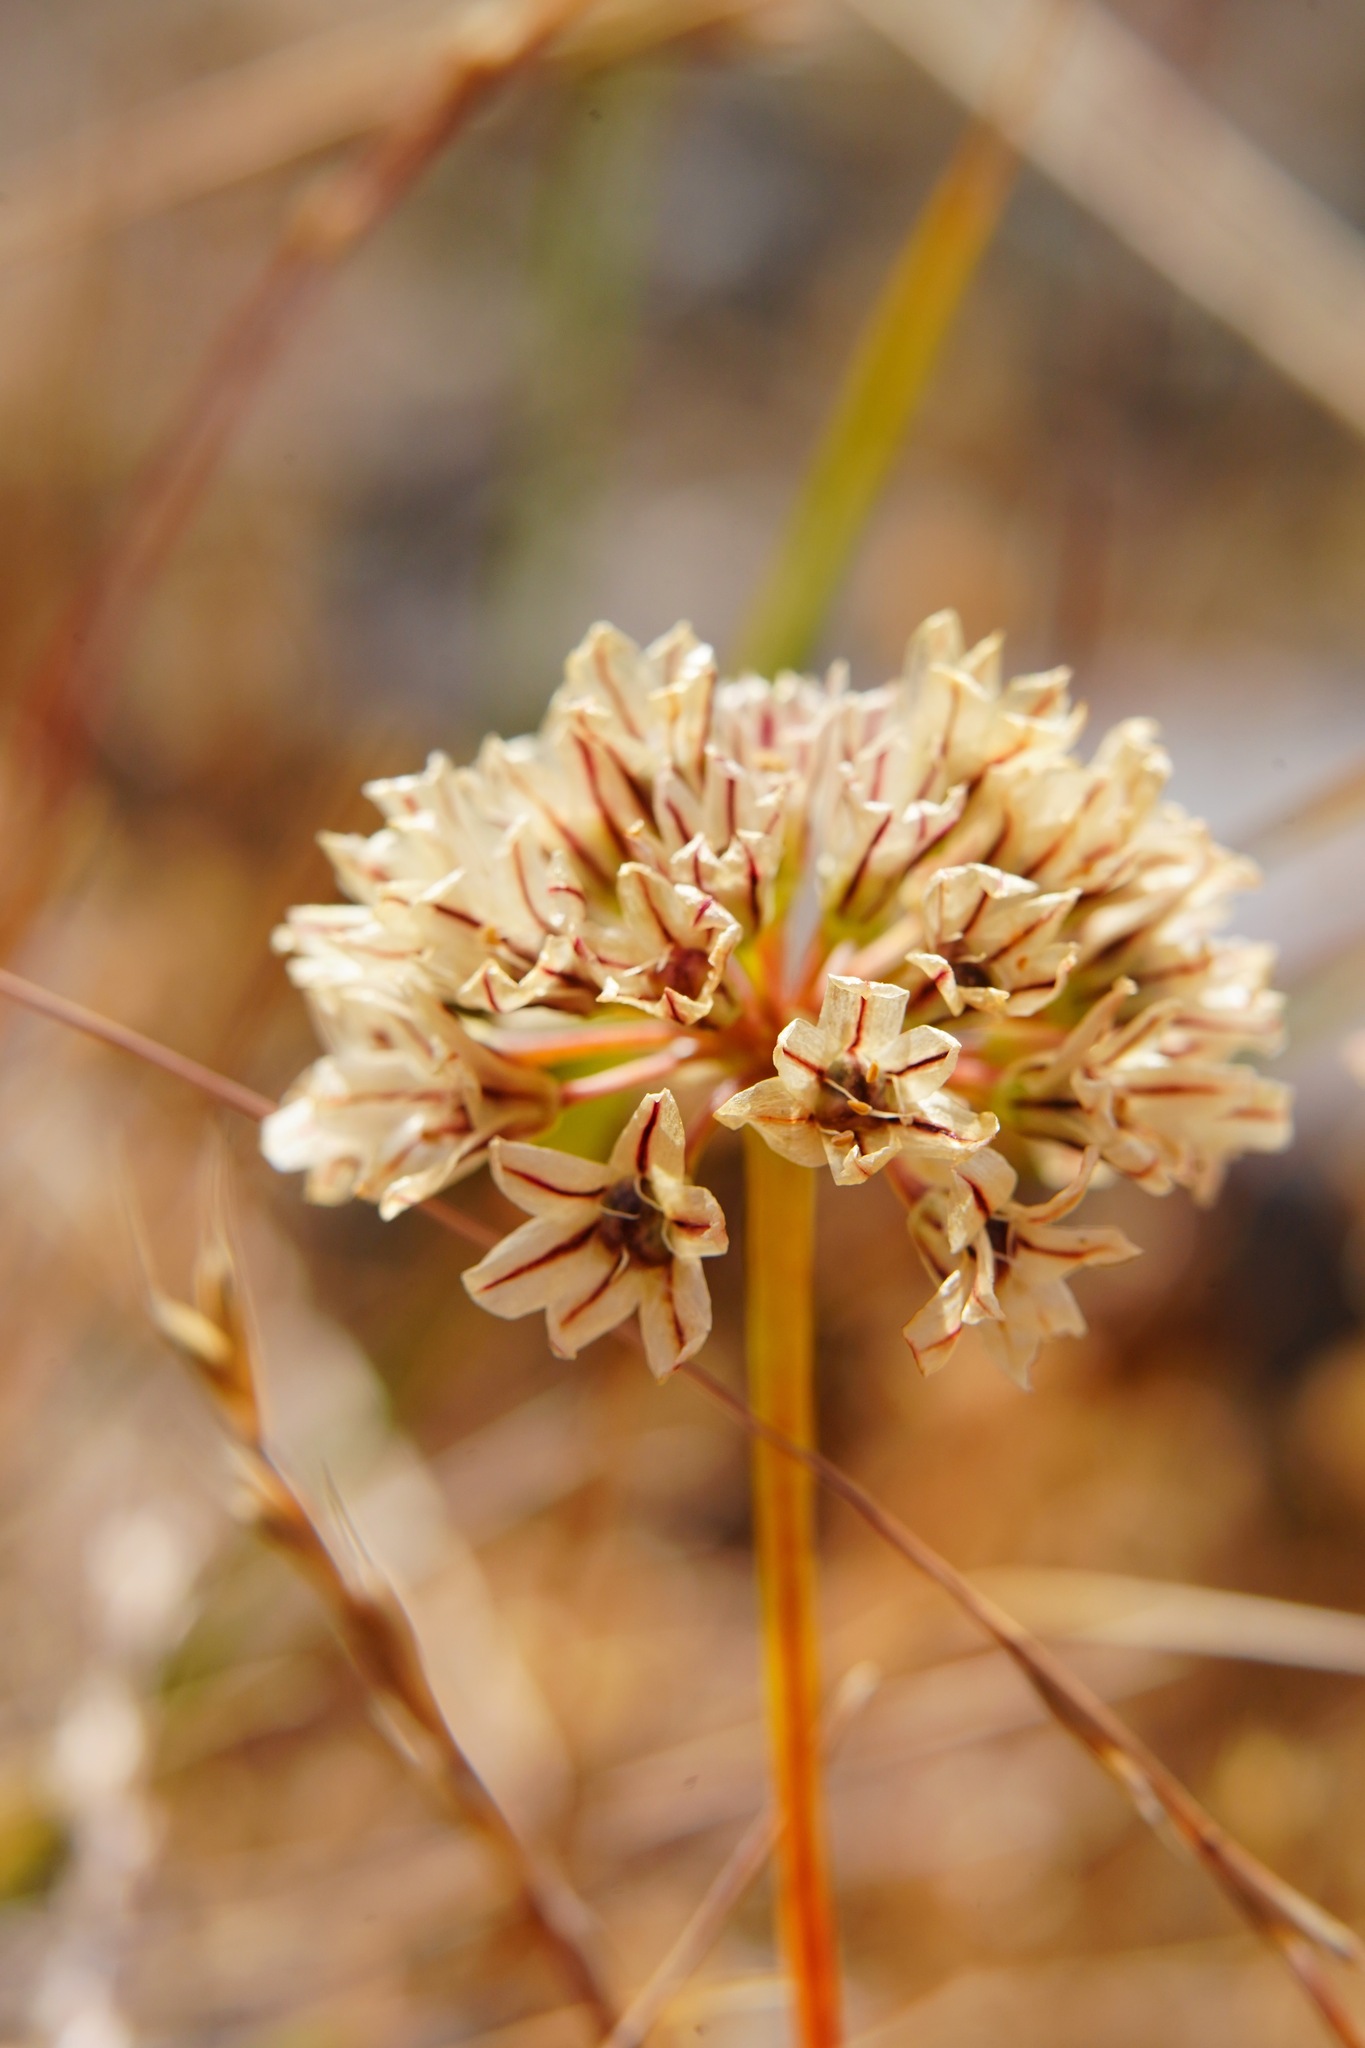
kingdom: Plantae
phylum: Tracheophyta
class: Liliopsida
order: Asparagales
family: Amaryllidaceae
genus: Allium
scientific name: Allium lacunosum
